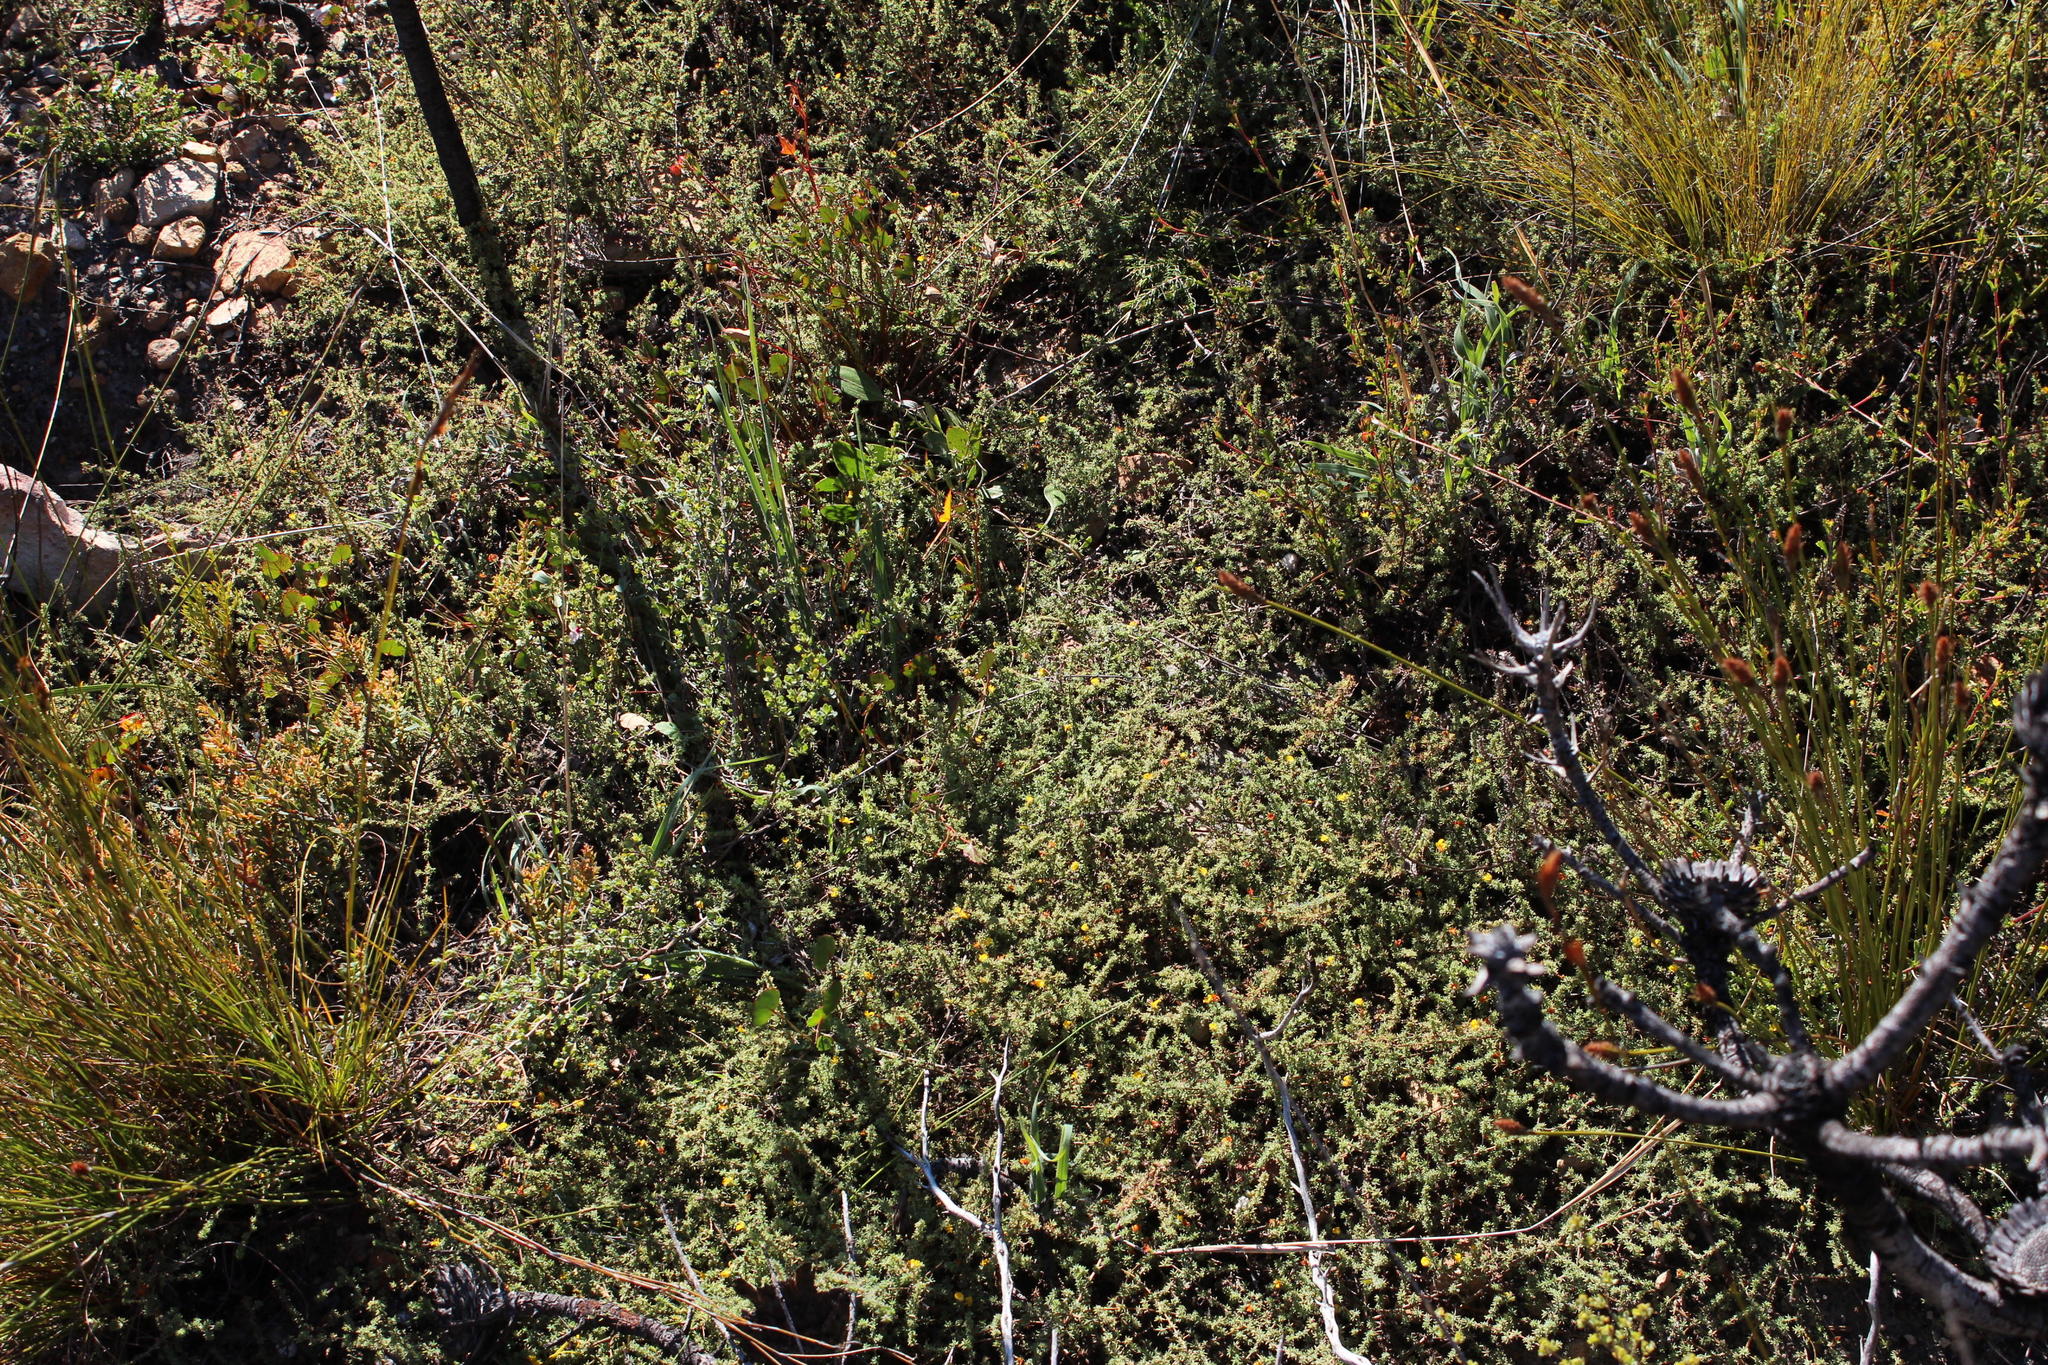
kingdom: Plantae
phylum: Tracheophyta
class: Magnoliopsida
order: Fabales
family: Fabaceae
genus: Aspalathus
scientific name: Aspalathus juniperina
